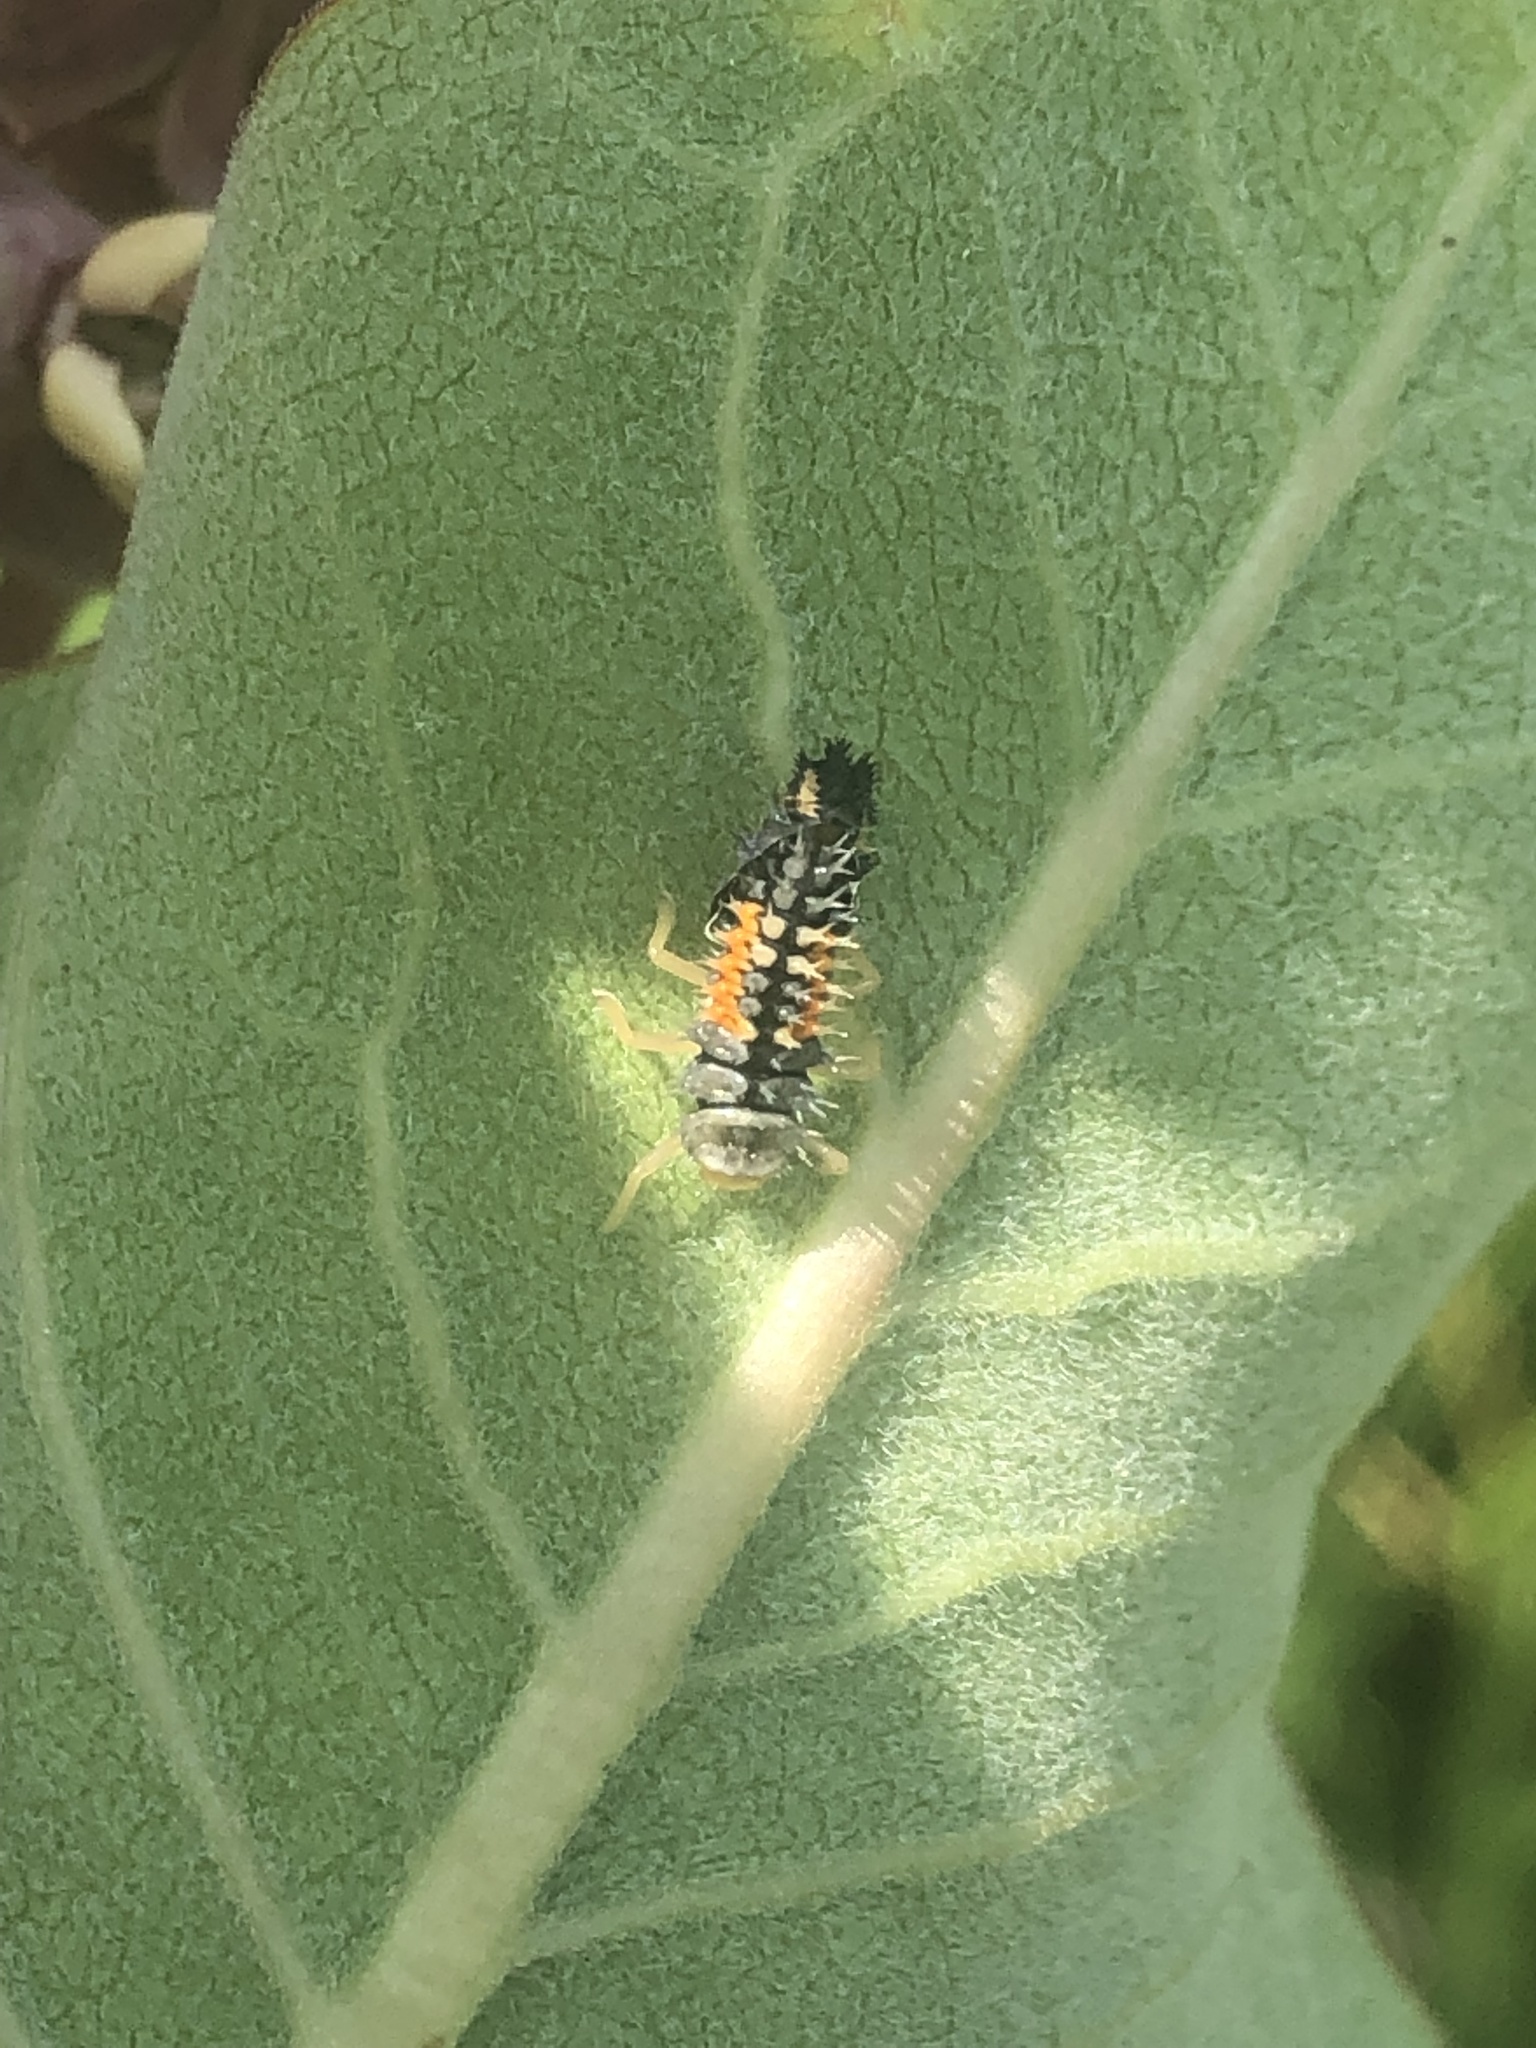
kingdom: Animalia
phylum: Arthropoda
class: Insecta
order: Coleoptera
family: Coccinellidae
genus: Harmonia
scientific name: Harmonia axyridis
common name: Harlequin ladybird
